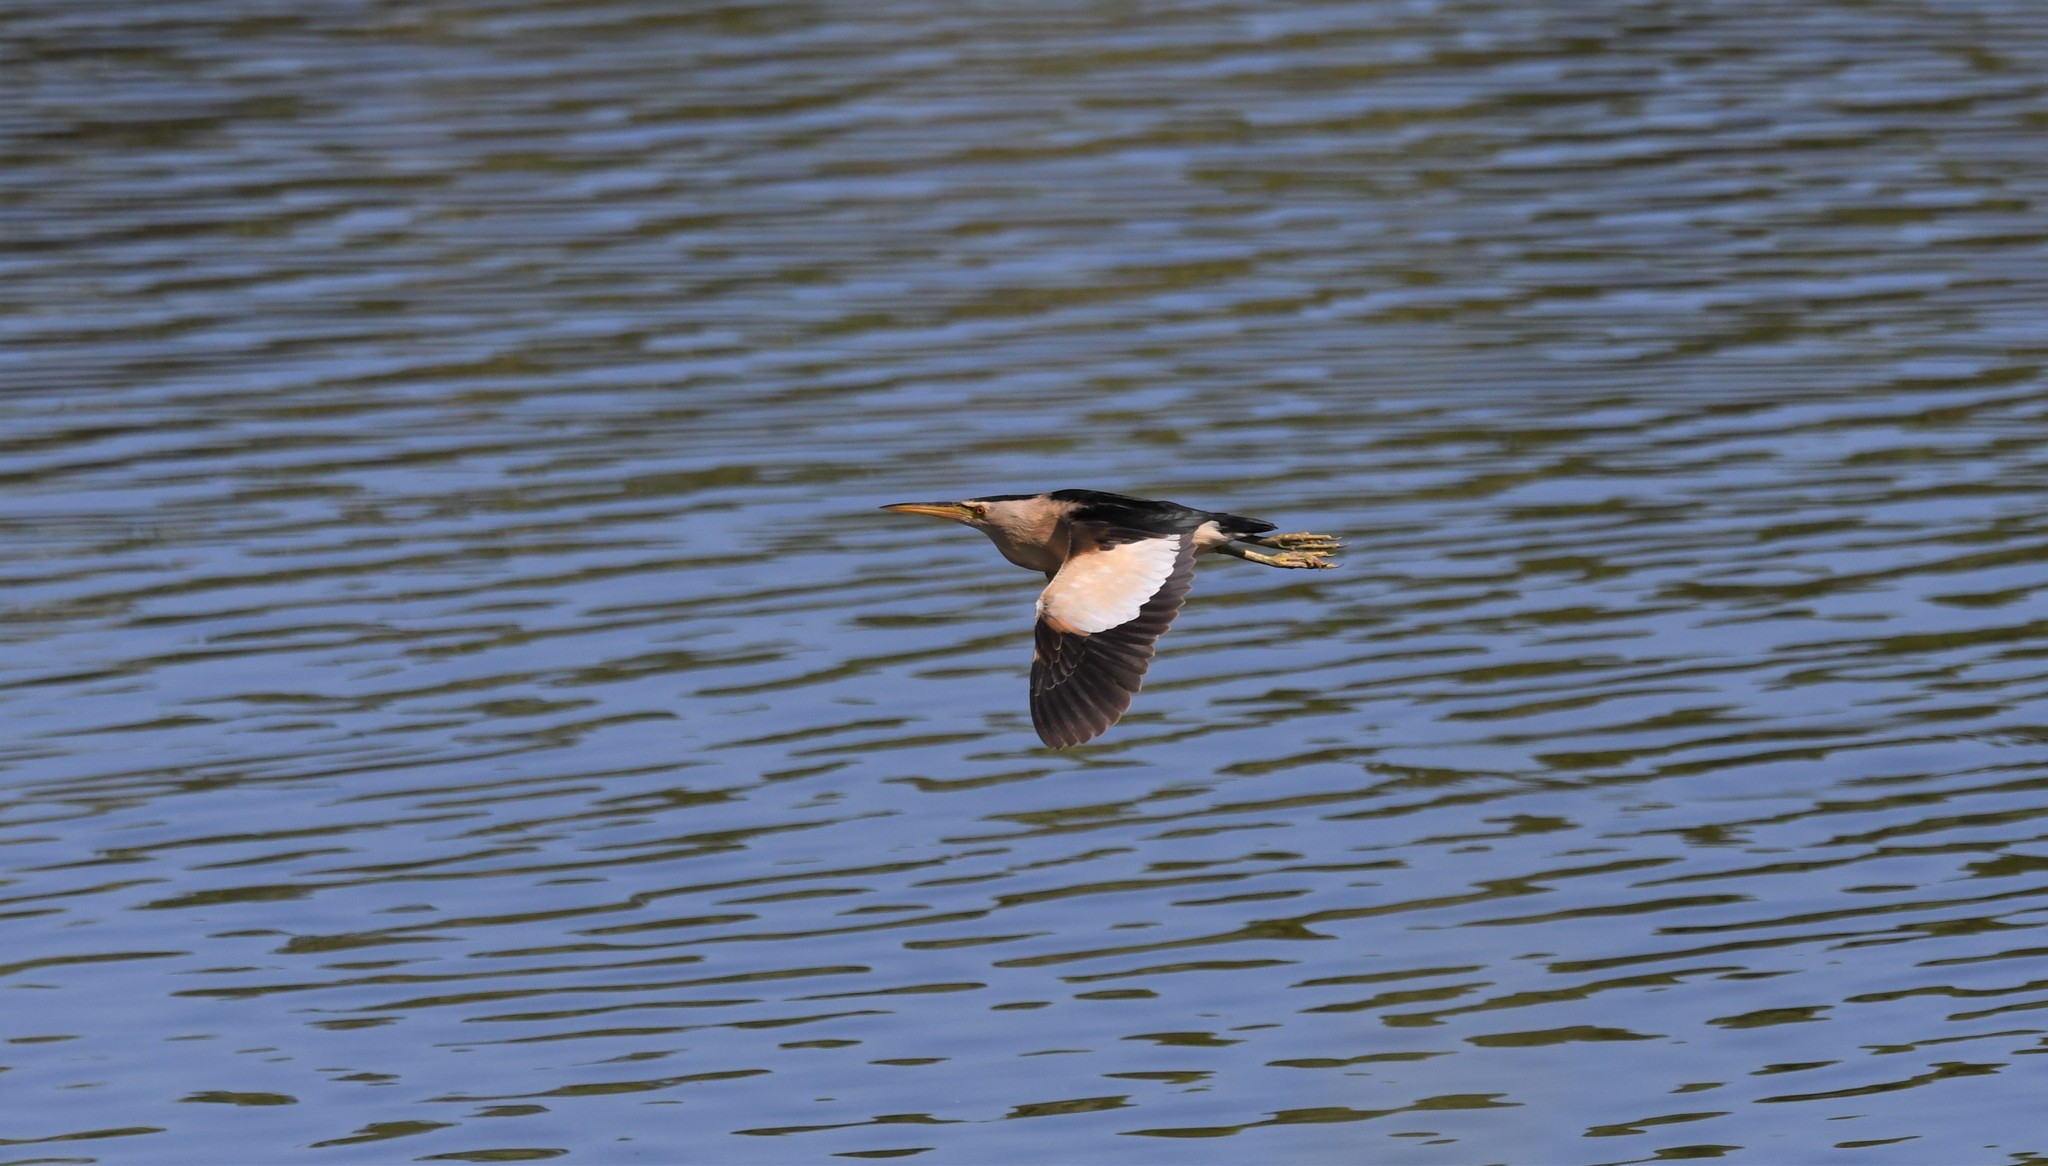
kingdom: Animalia
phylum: Chordata
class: Aves
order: Pelecaniformes
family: Ardeidae
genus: Ixobrychus
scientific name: Ixobrychus minutus
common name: Little bittern
